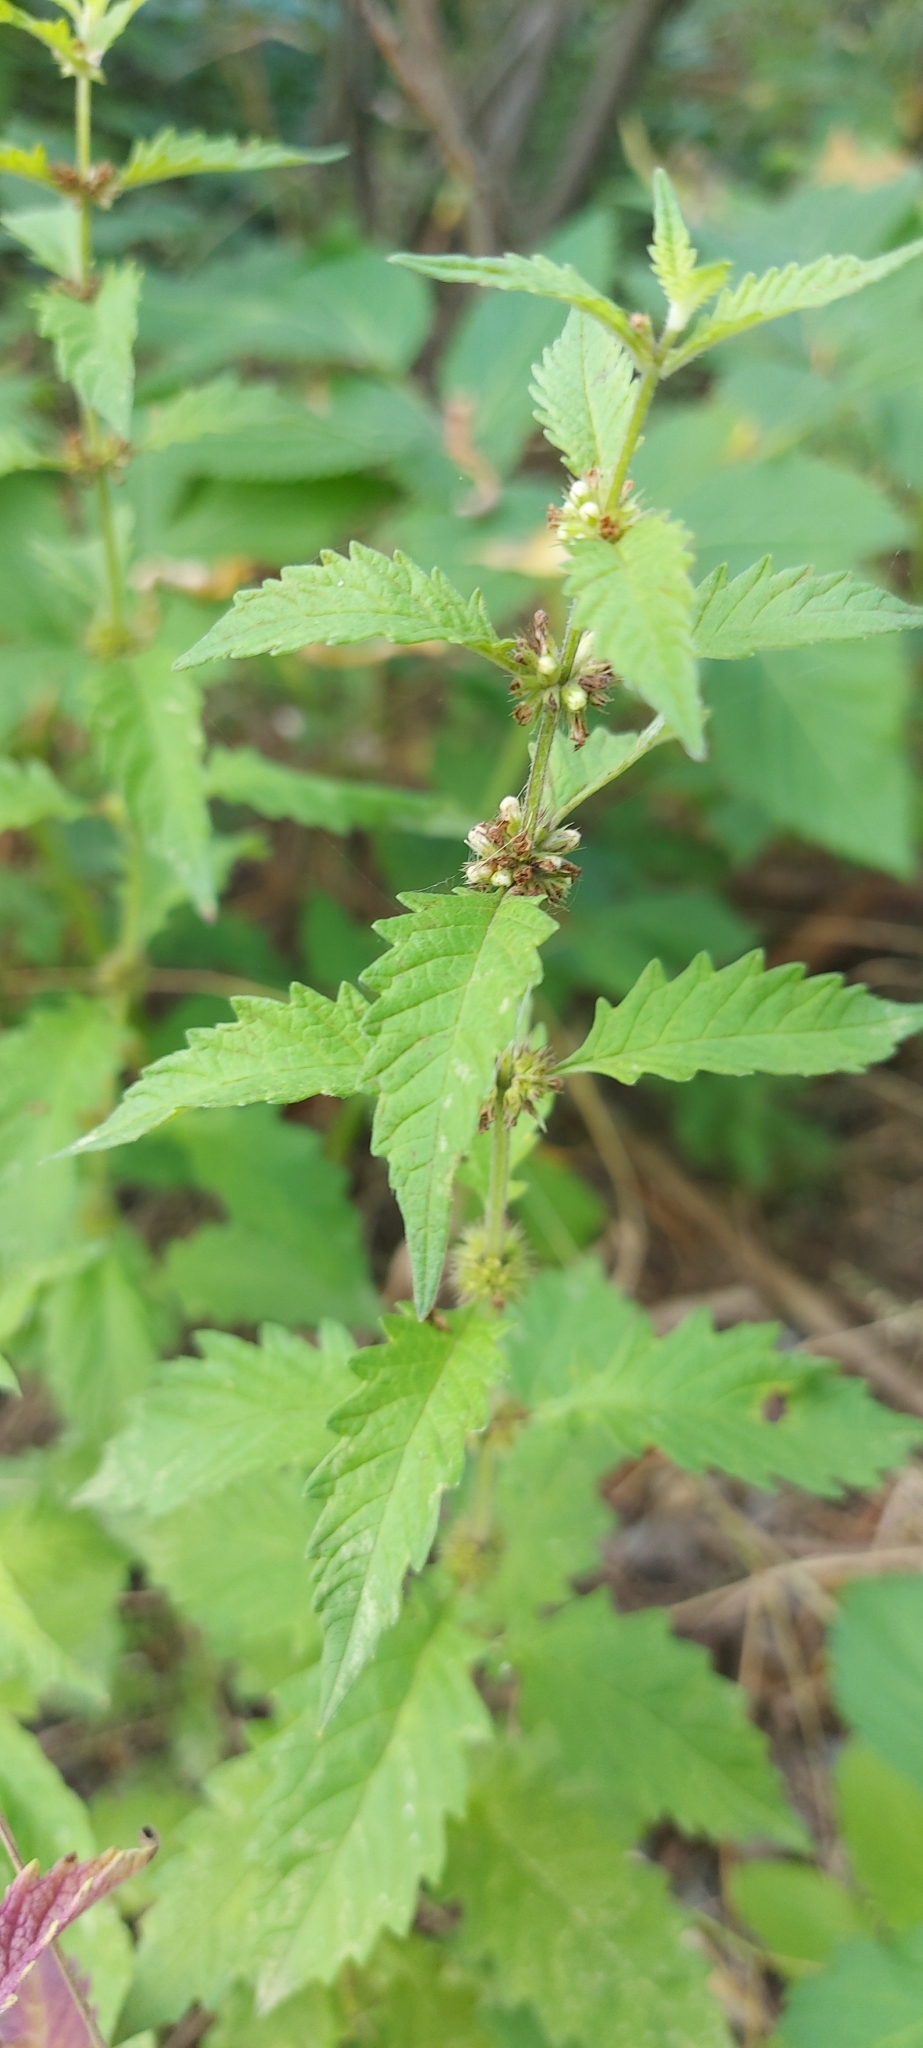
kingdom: Plantae
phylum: Tracheophyta
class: Magnoliopsida
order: Lamiales
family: Lamiaceae
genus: Lycopus
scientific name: Lycopus europaeus
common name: European bugleweed
